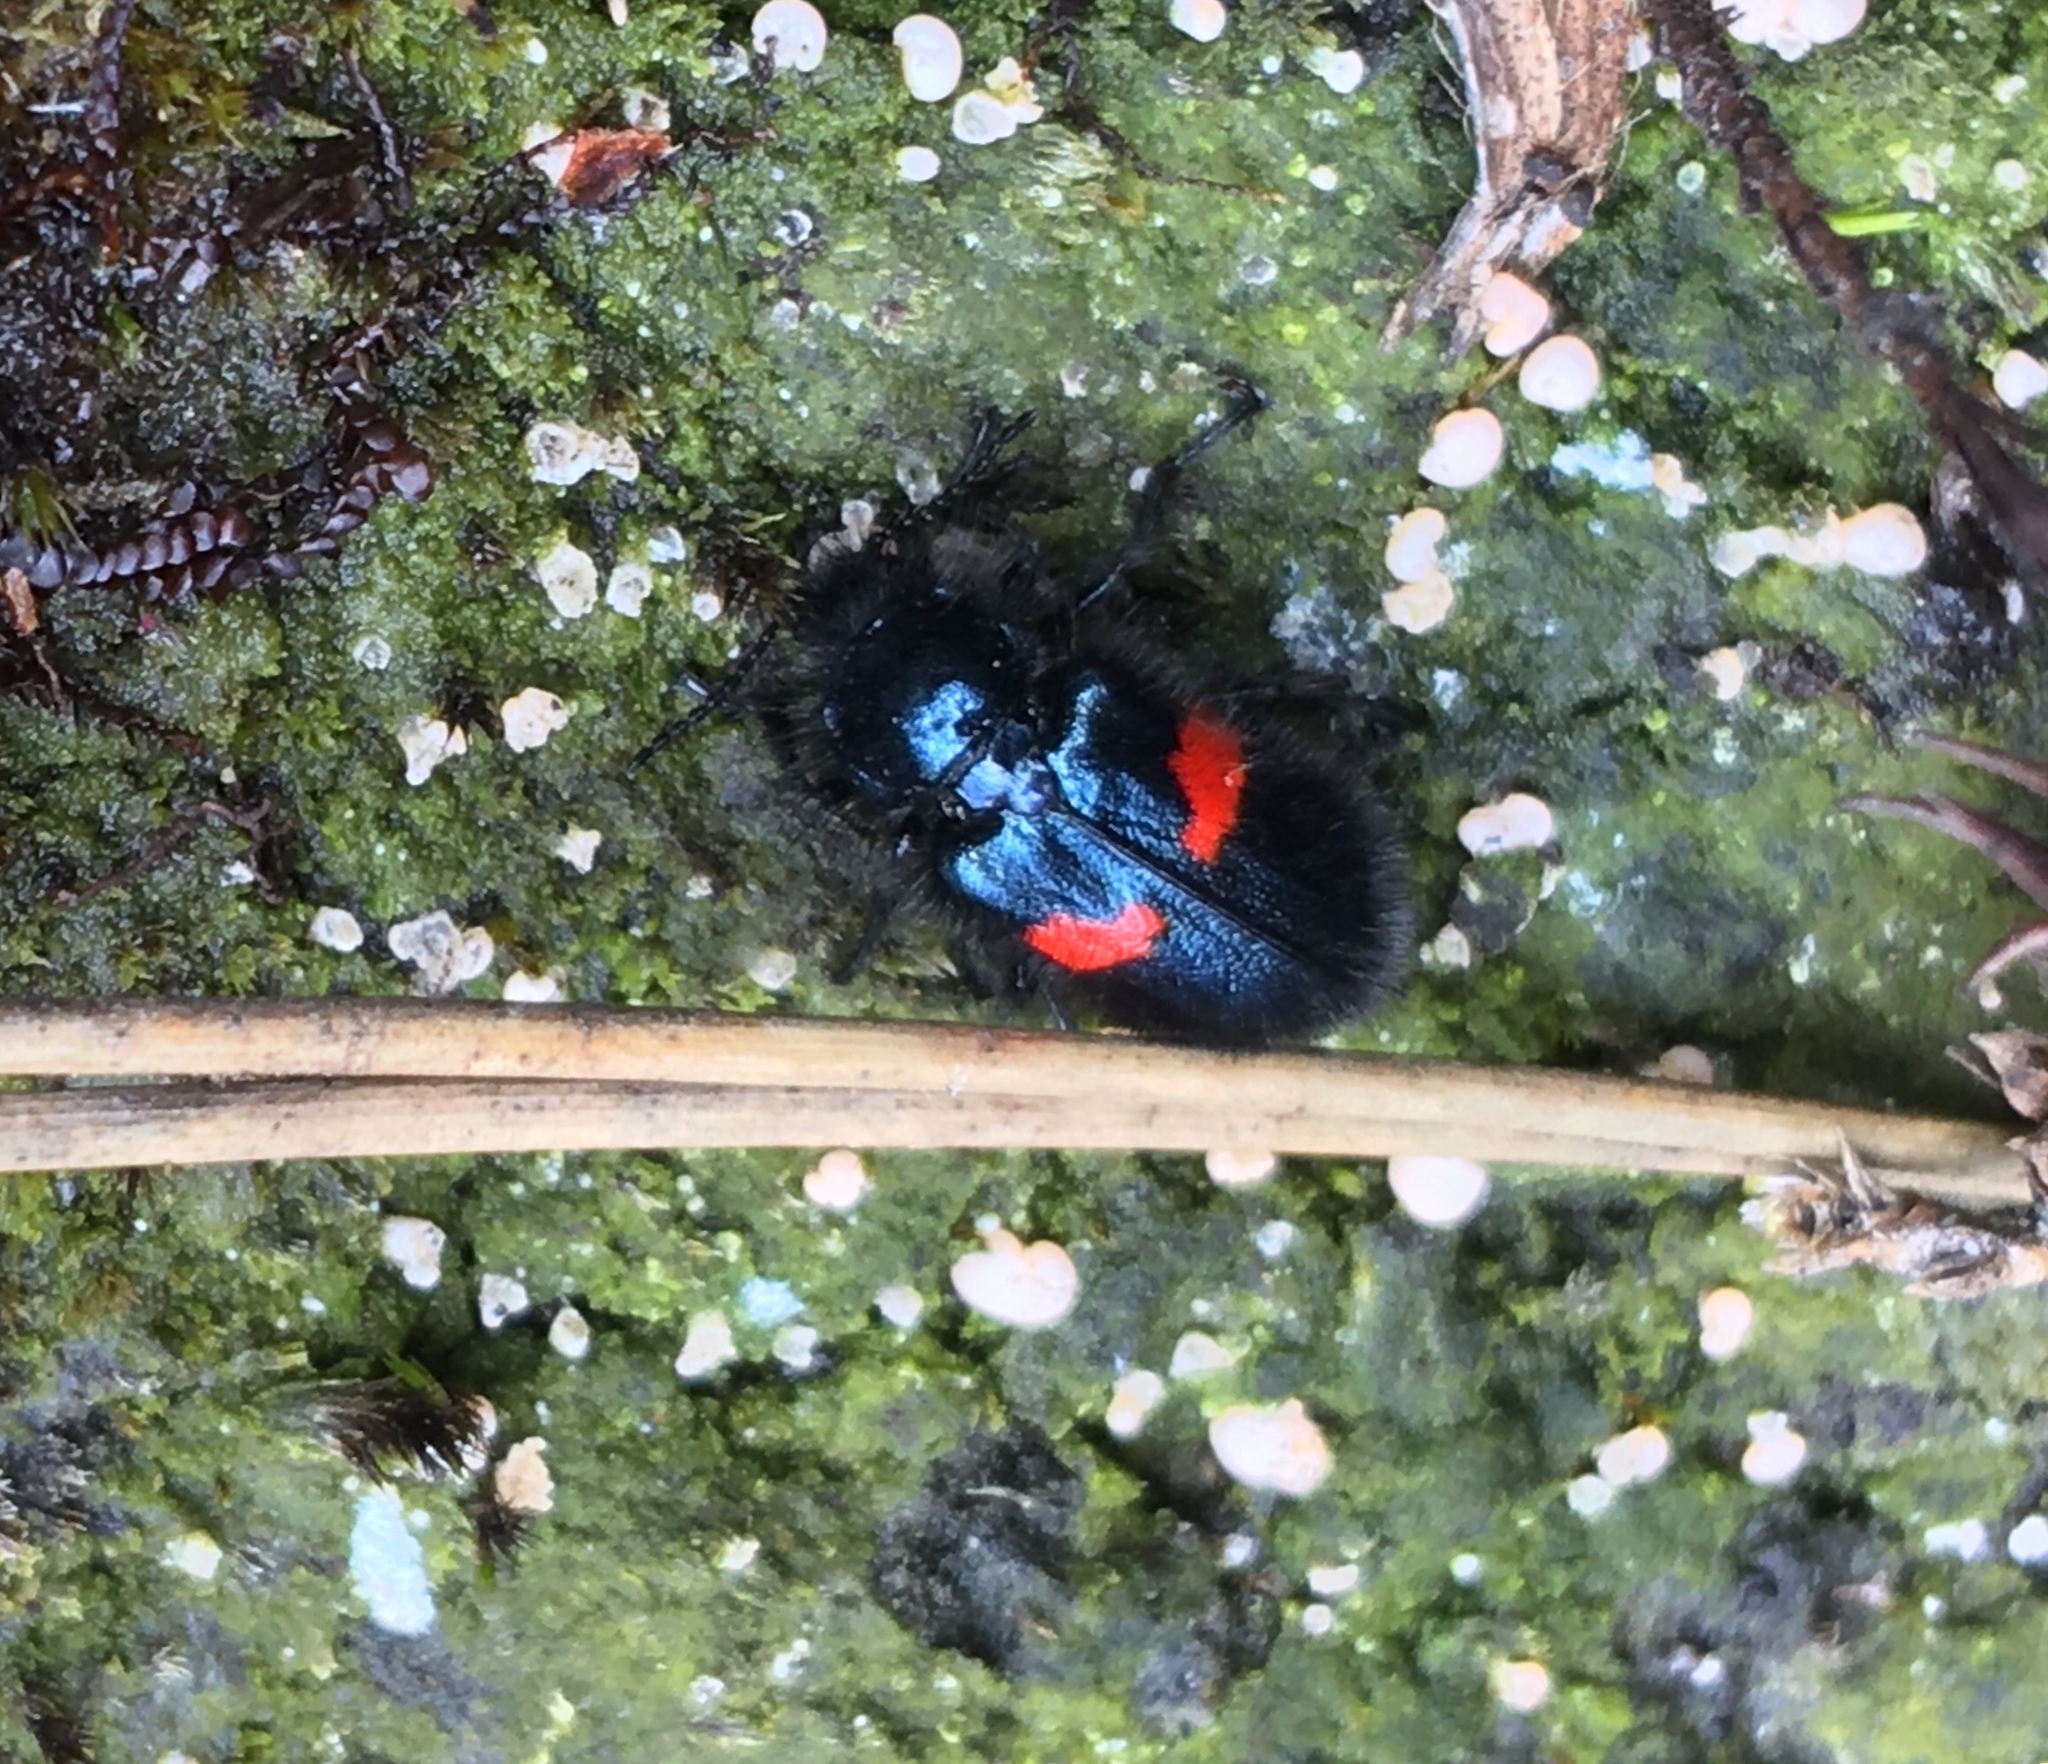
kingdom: Animalia
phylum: Arthropoda
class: Insecta
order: Coleoptera
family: Melyridae
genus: Astylus
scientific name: Astylus
